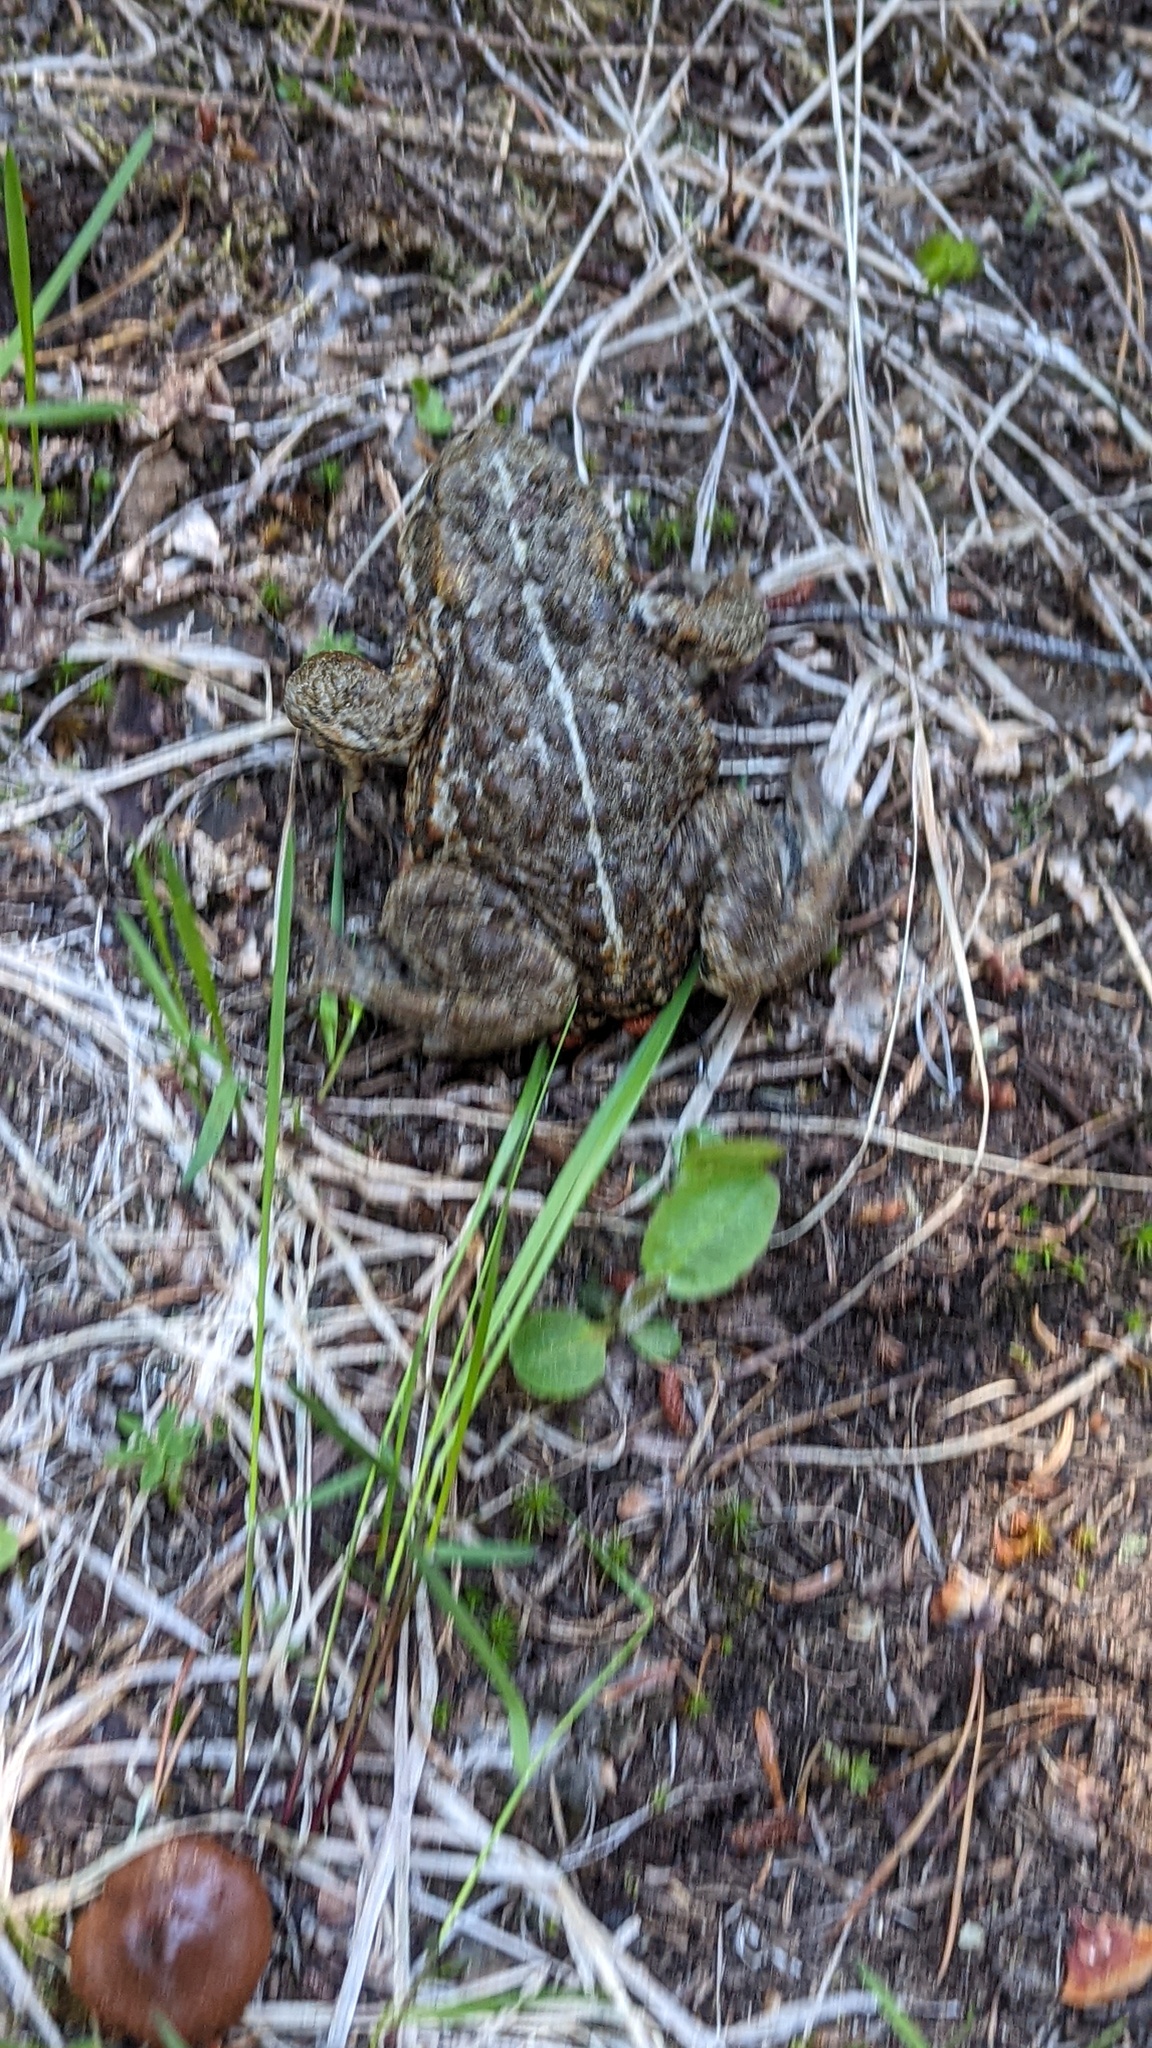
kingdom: Animalia
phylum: Chordata
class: Amphibia
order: Anura
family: Bufonidae
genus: Anaxyrus
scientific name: Anaxyrus boreas
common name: Western toad
